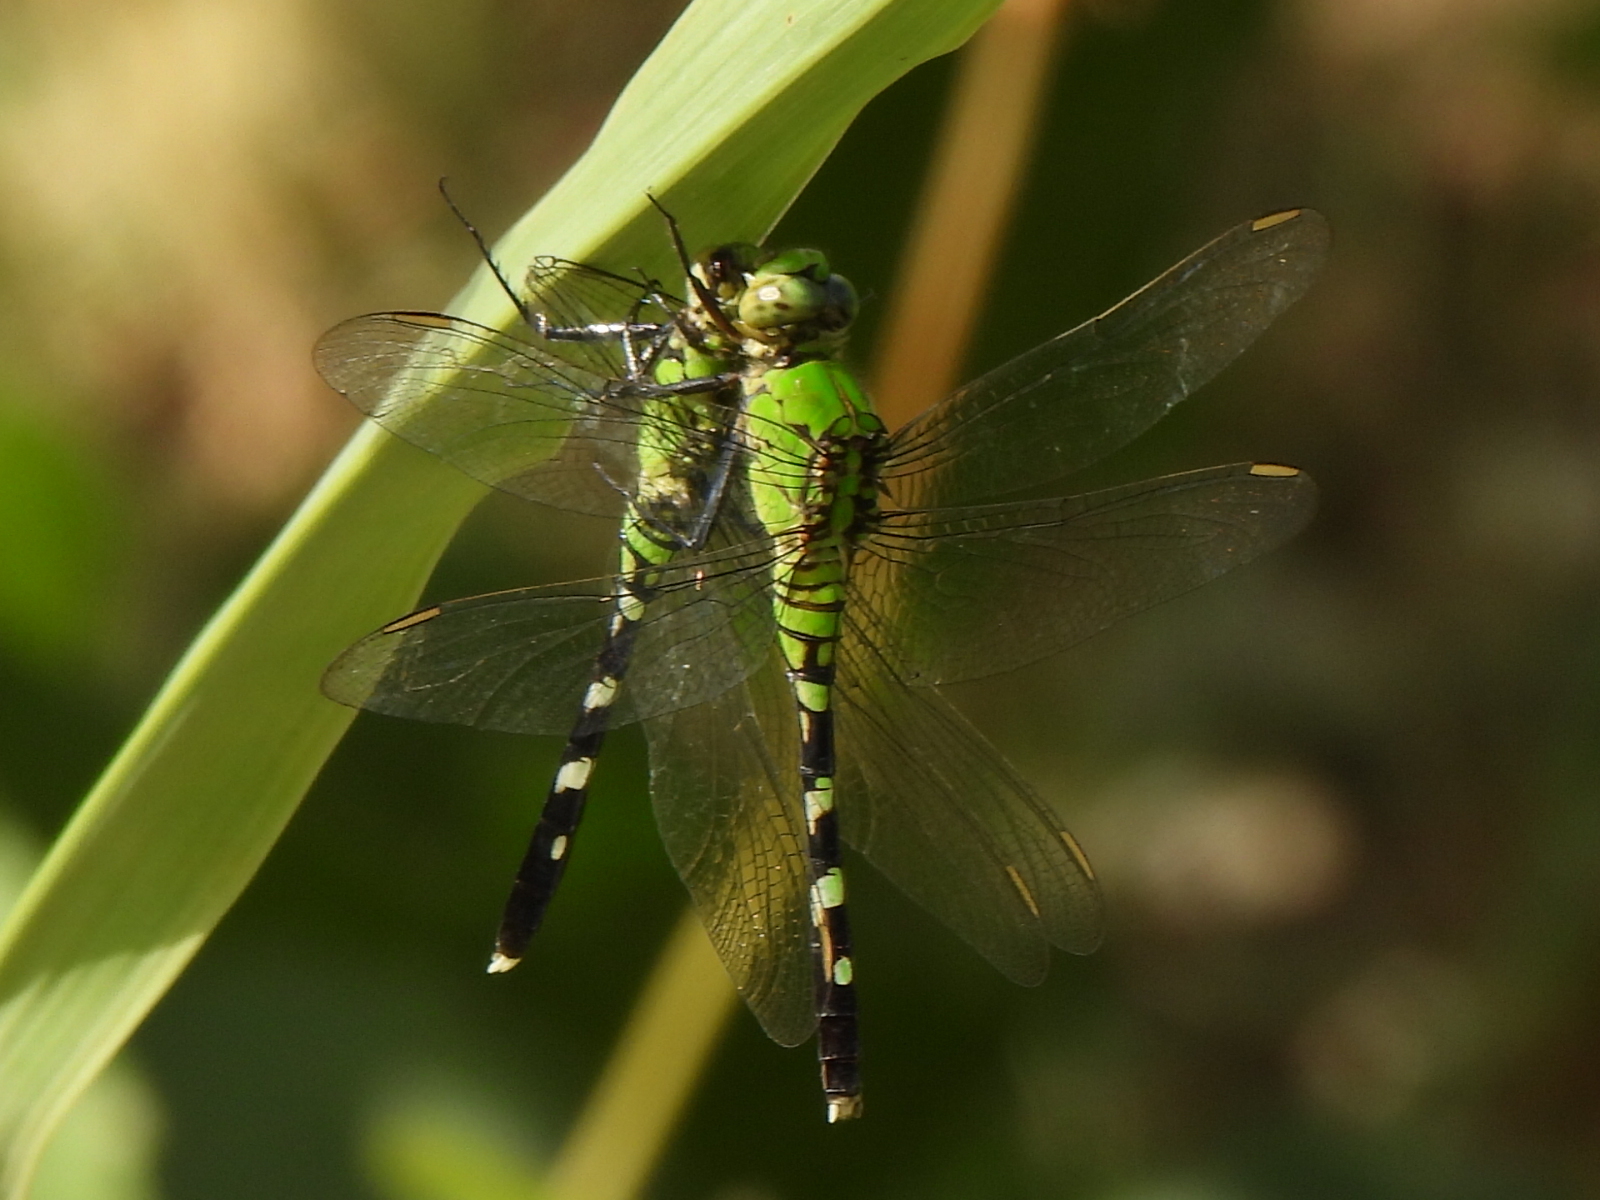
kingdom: Animalia
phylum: Arthropoda
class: Insecta
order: Odonata
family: Libellulidae
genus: Erythemis
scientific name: Erythemis simplicicollis
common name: Eastern pondhawk
